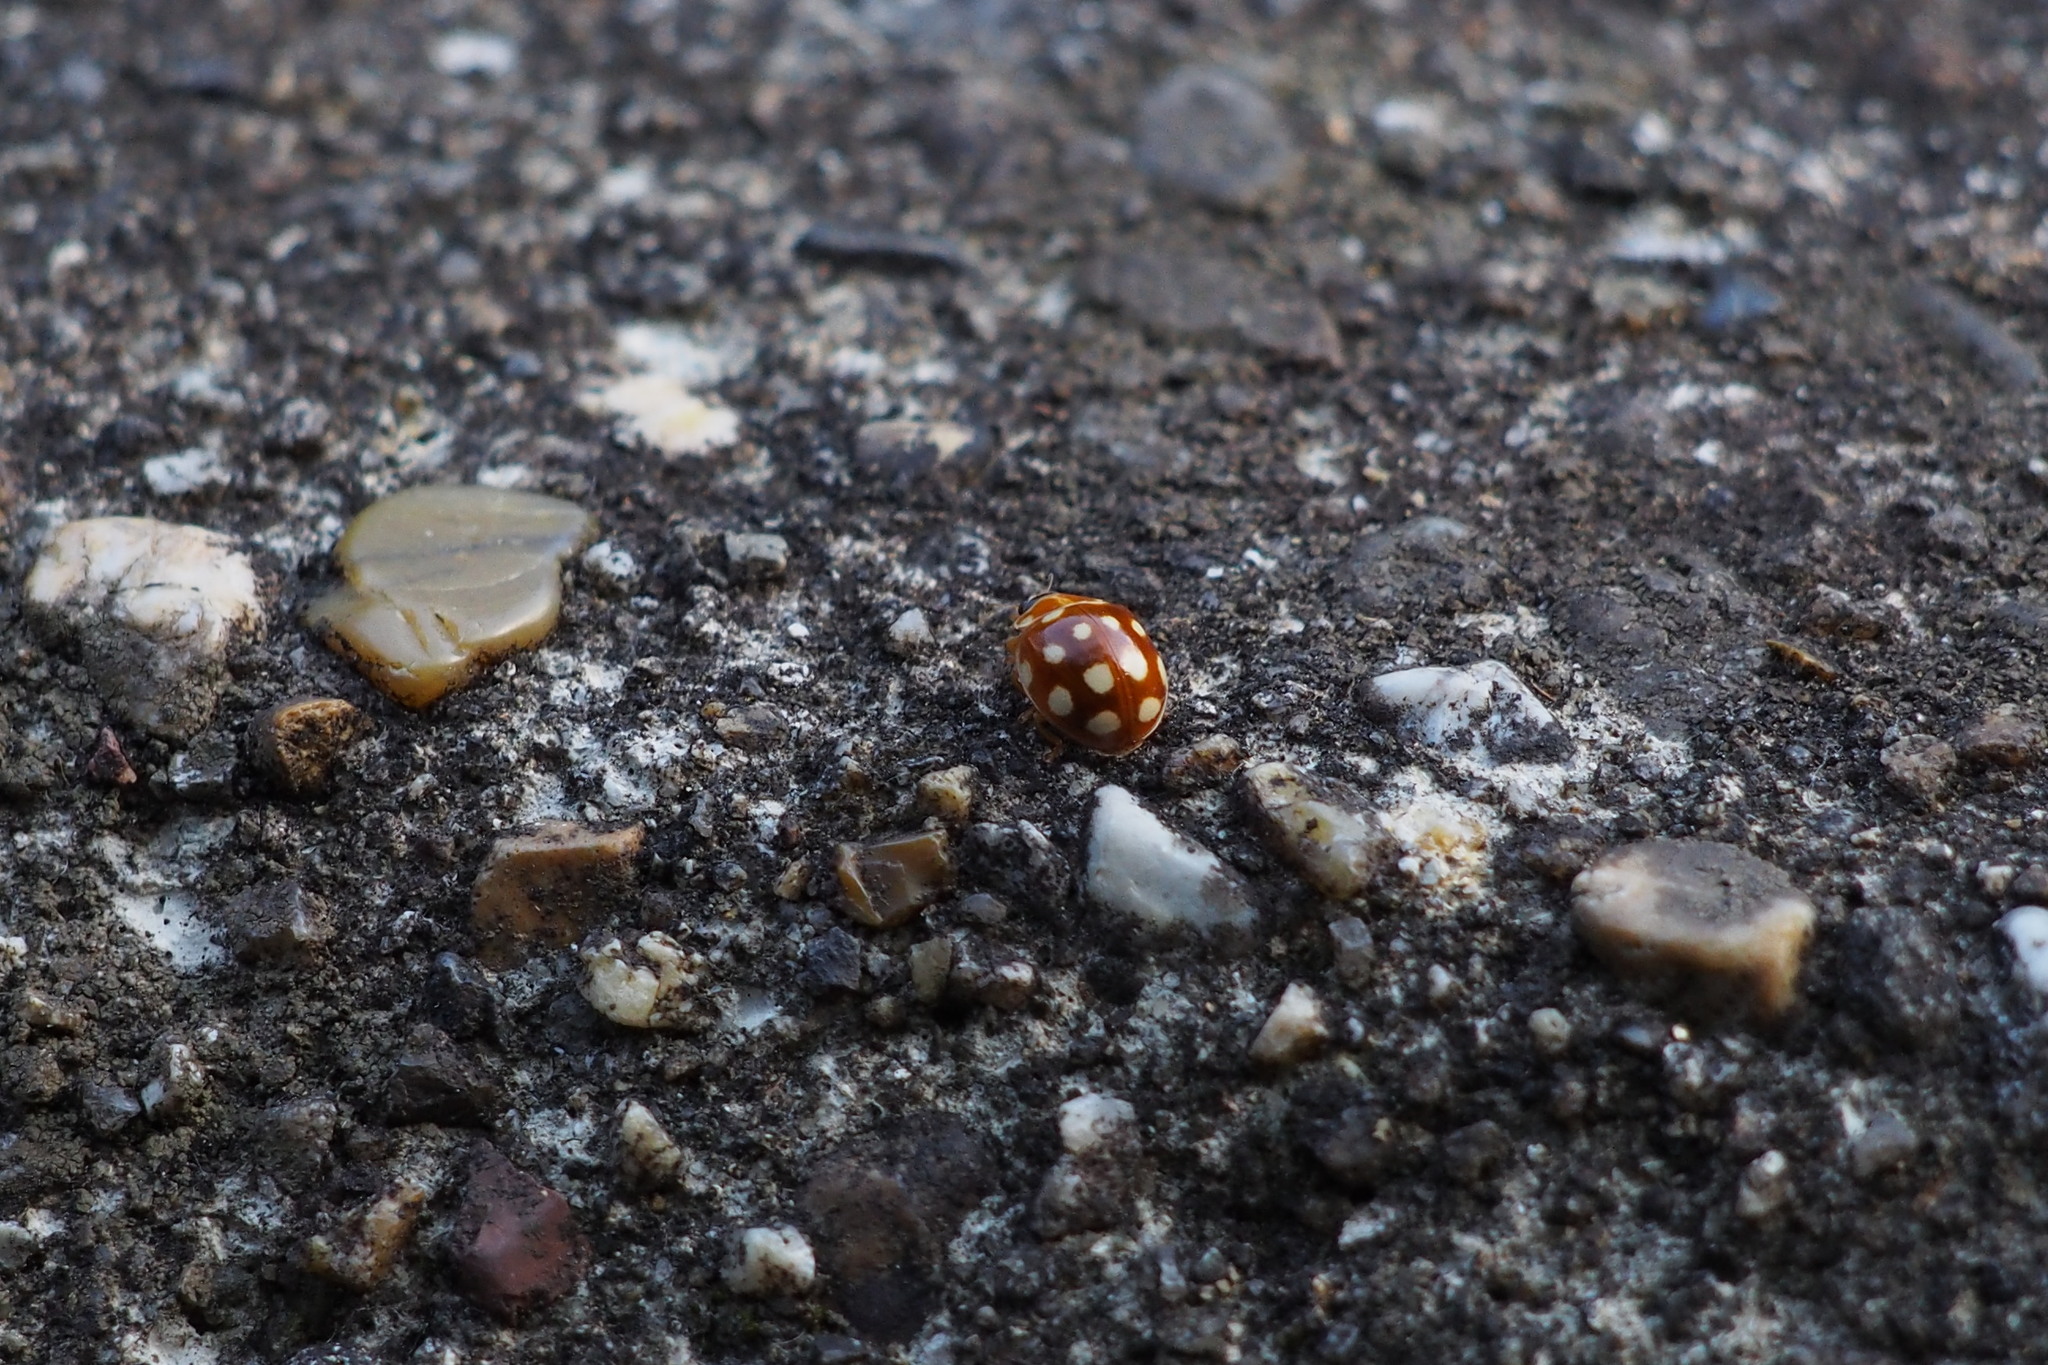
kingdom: Animalia
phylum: Arthropoda
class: Insecta
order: Coleoptera
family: Coccinellidae
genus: Calvia
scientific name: Calvia quatuordecimguttata
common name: Cream-spot ladybird
